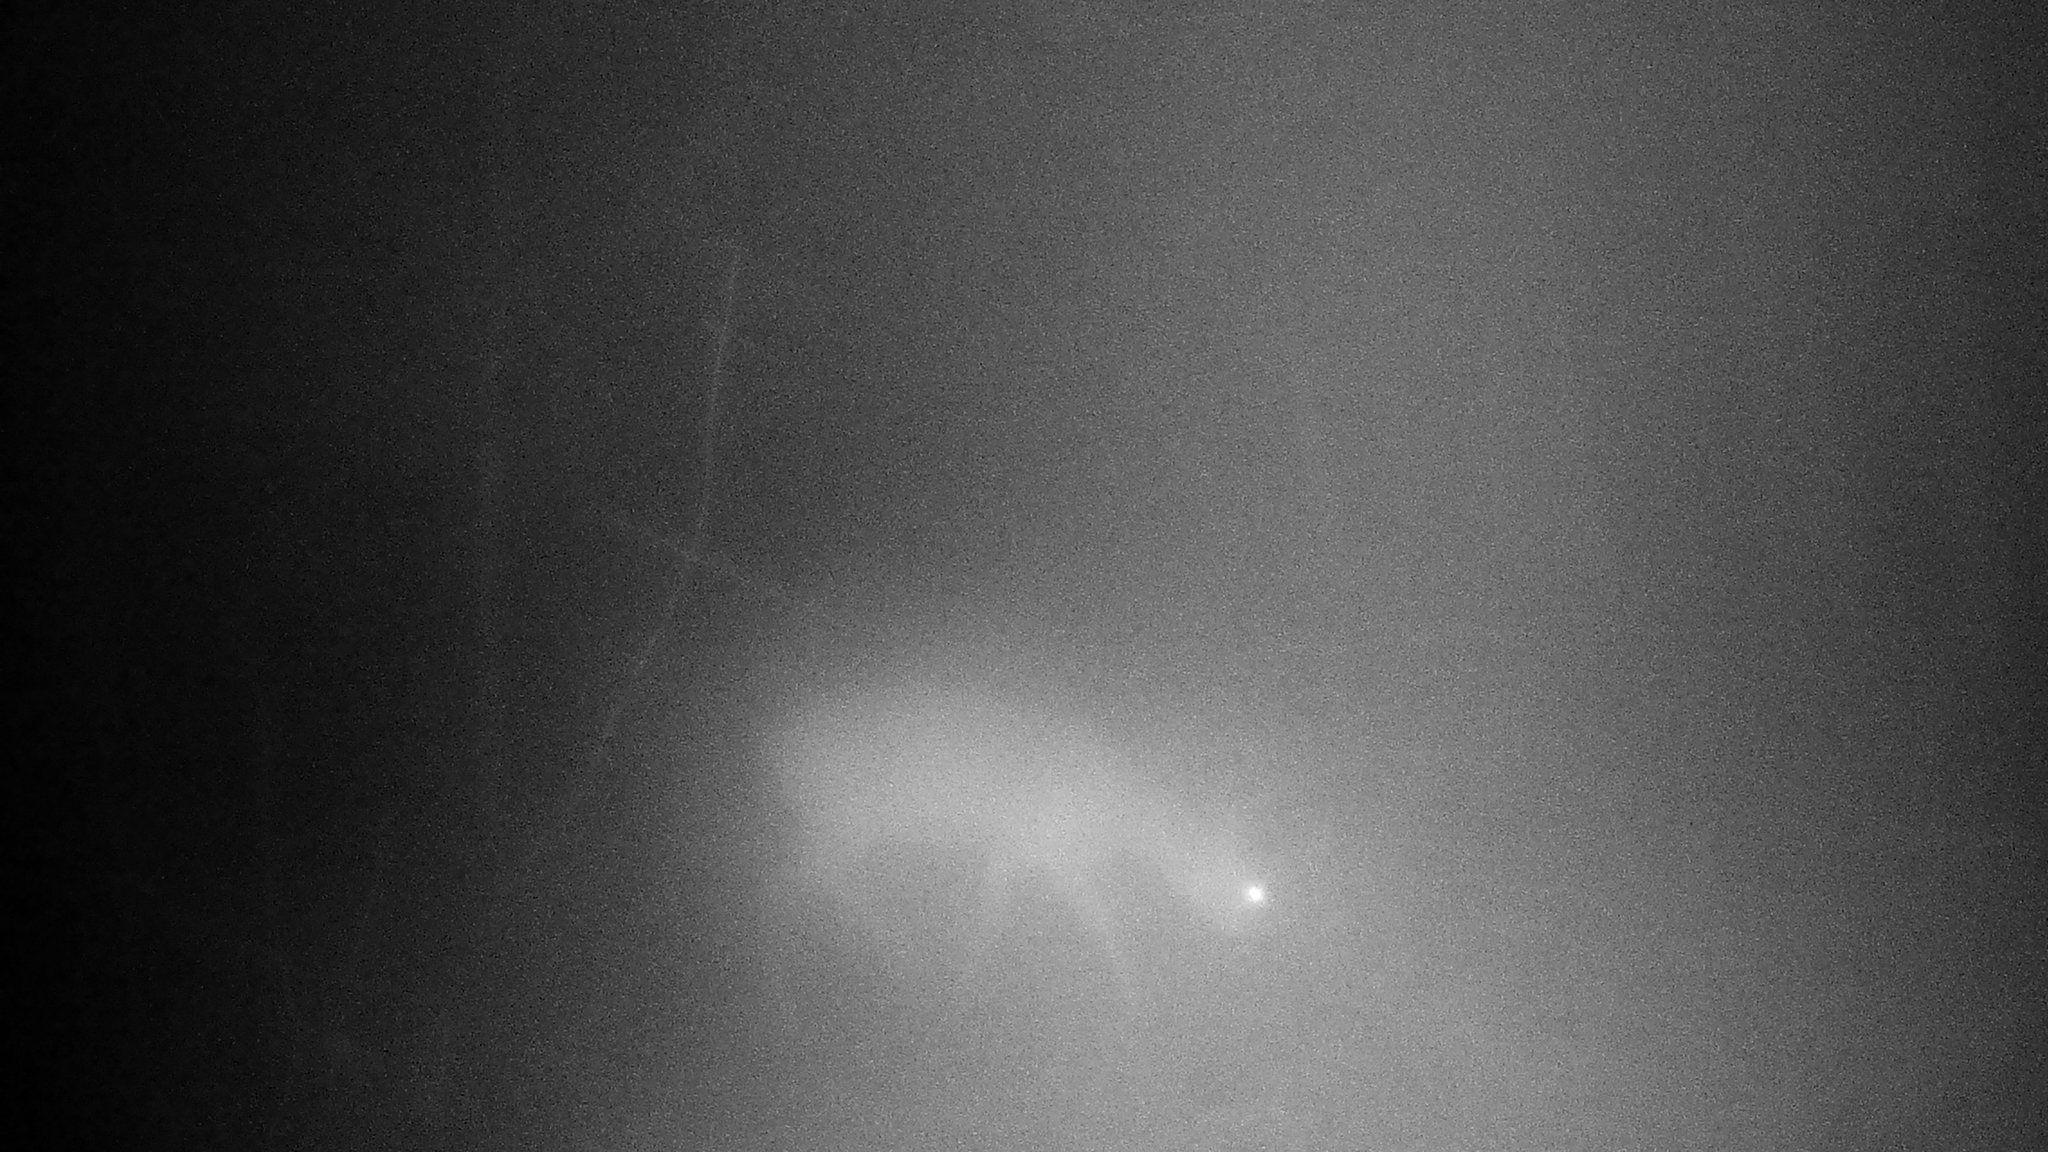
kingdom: Animalia
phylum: Chordata
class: Mammalia
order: Artiodactyla
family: Cervidae
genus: Capreolus
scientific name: Capreolus capreolus
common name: Western roe deer
